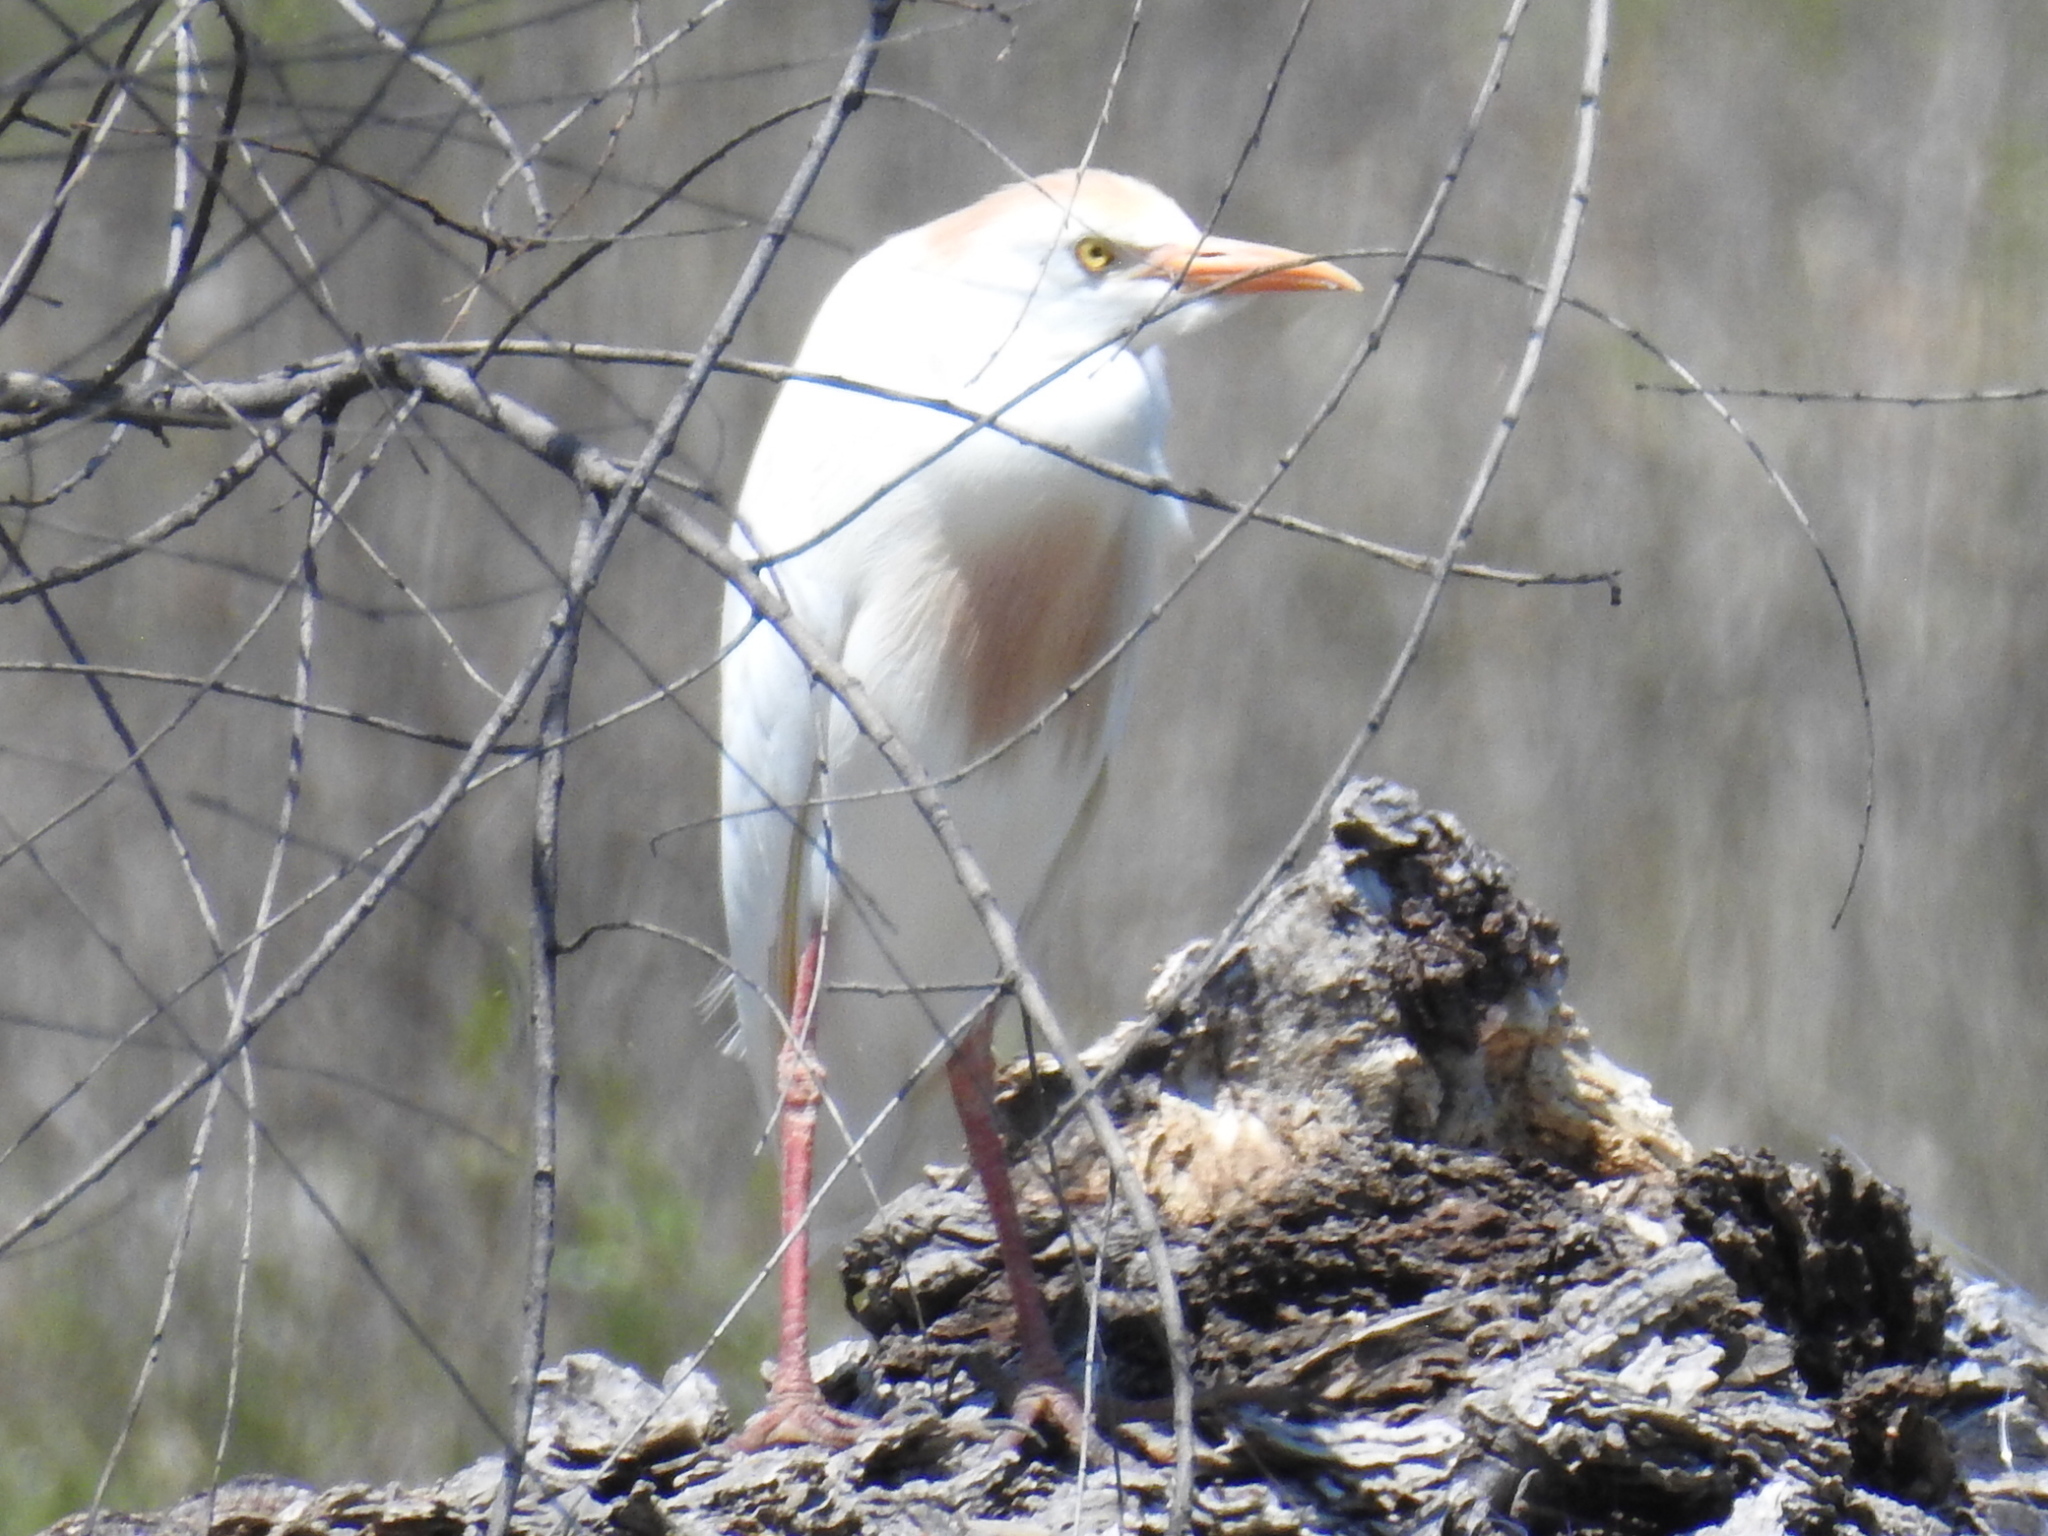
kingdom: Animalia
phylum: Chordata
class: Aves
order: Pelecaniformes
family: Ardeidae
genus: Bubulcus
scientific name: Bubulcus ibis
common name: Cattle egret
